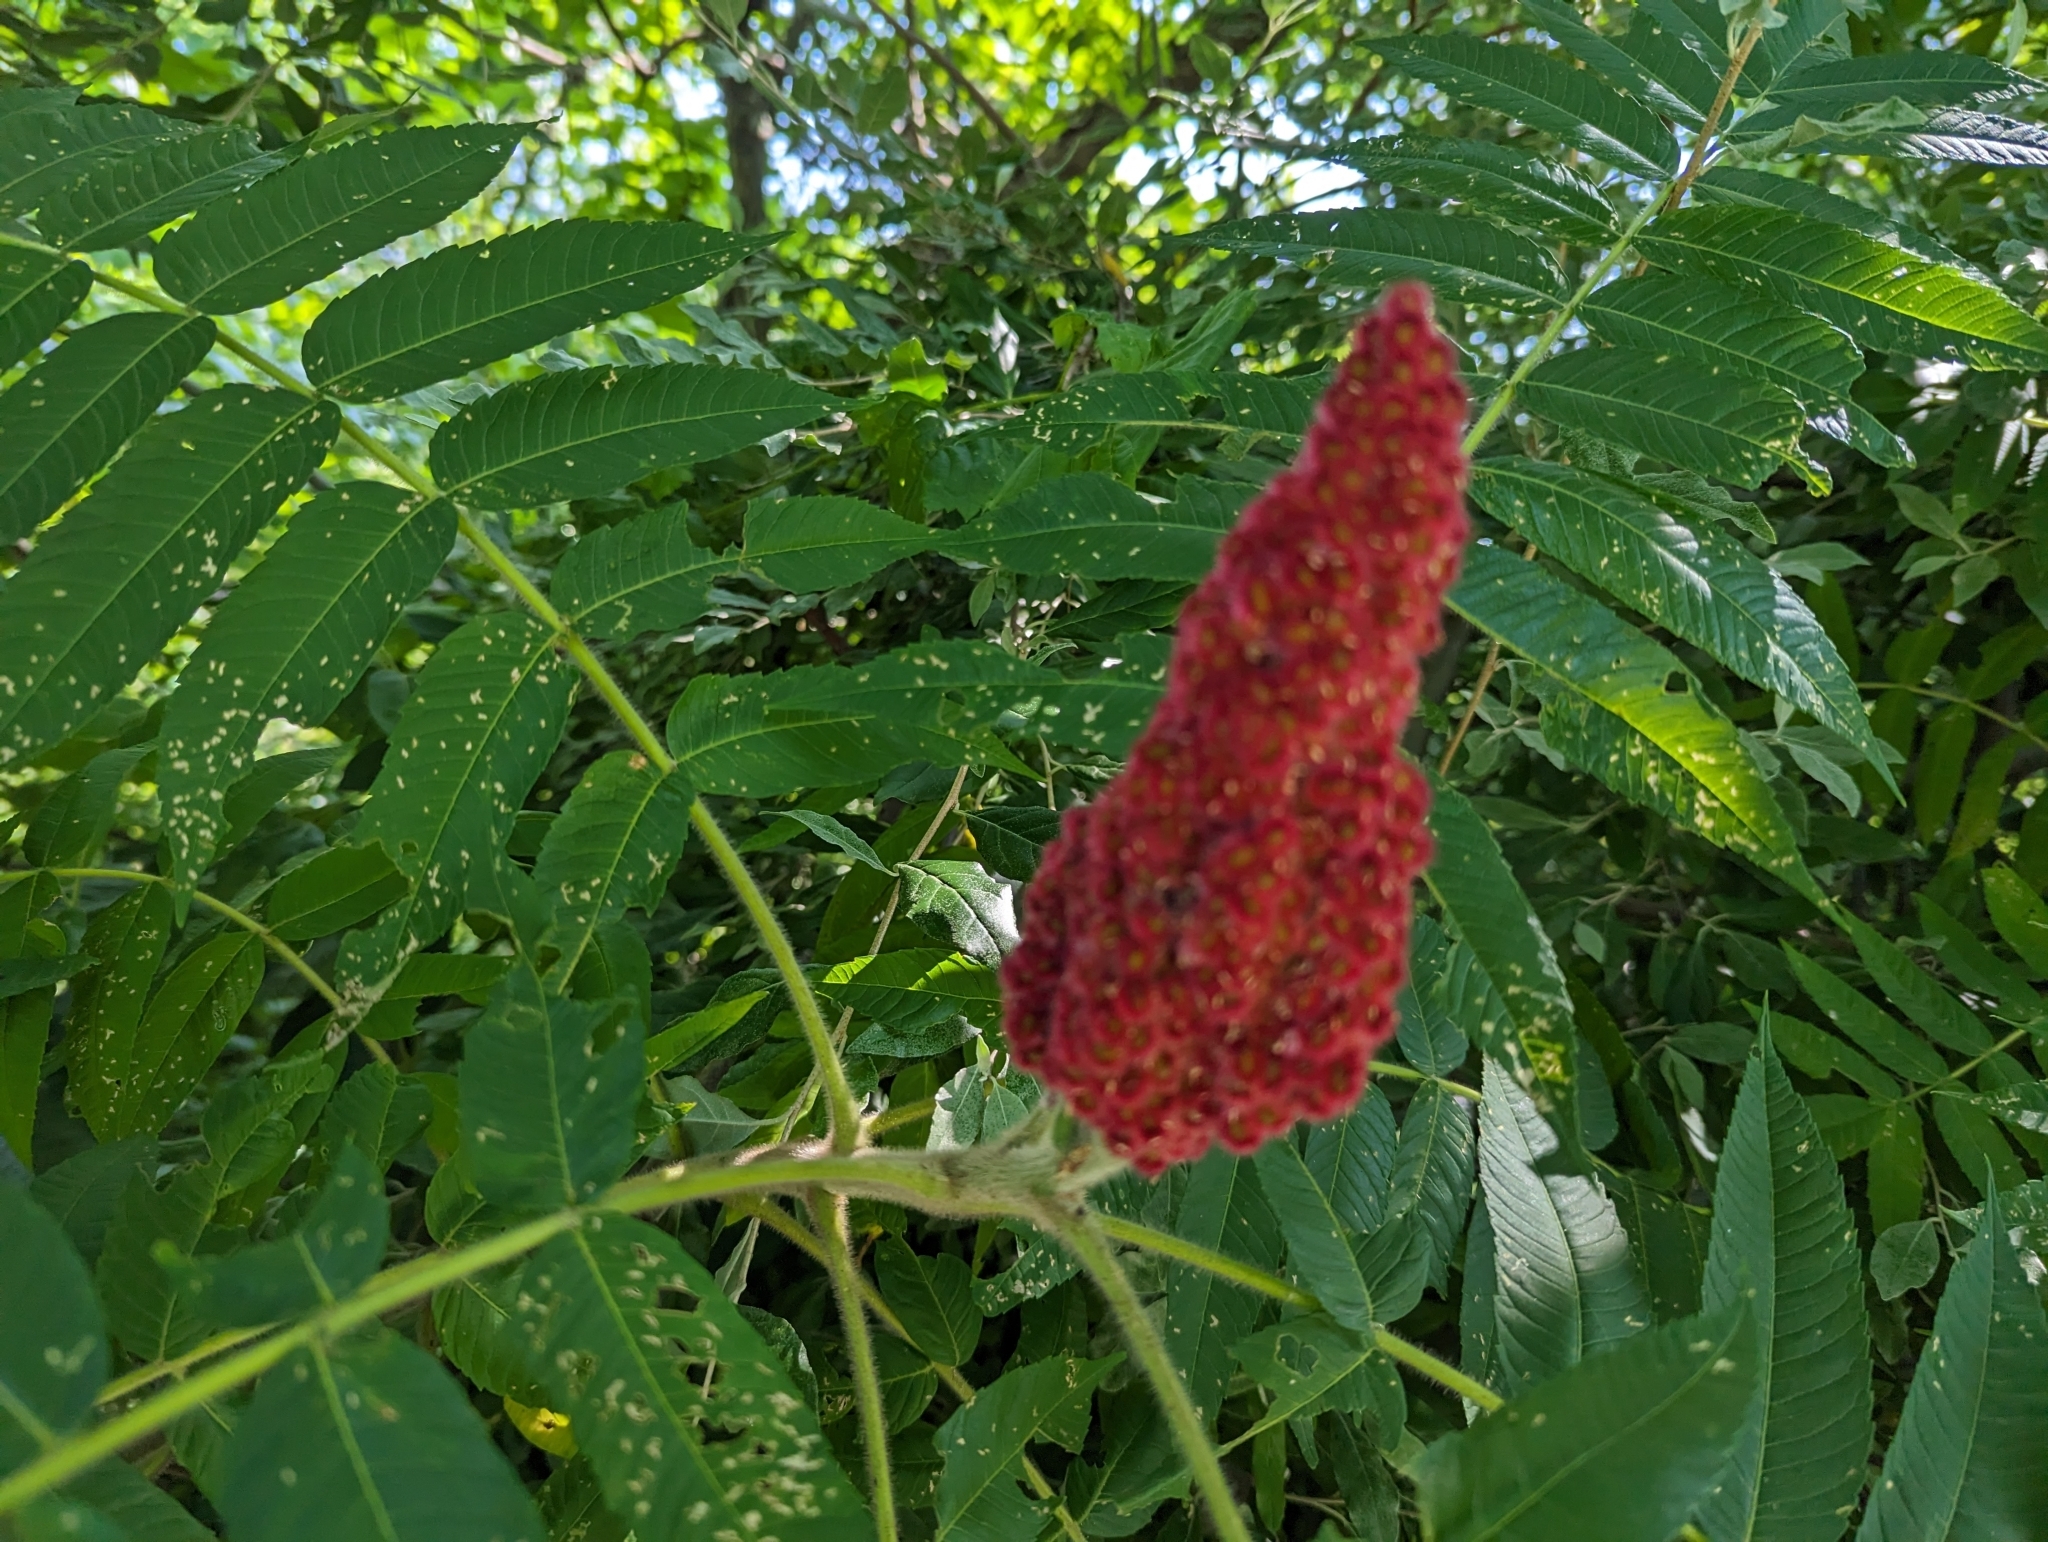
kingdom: Plantae
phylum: Tracheophyta
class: Magnoliopsida
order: Sapindales
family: Anacardiaceae
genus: Rhus
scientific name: Rhus typhina
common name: Staghorn sumac
